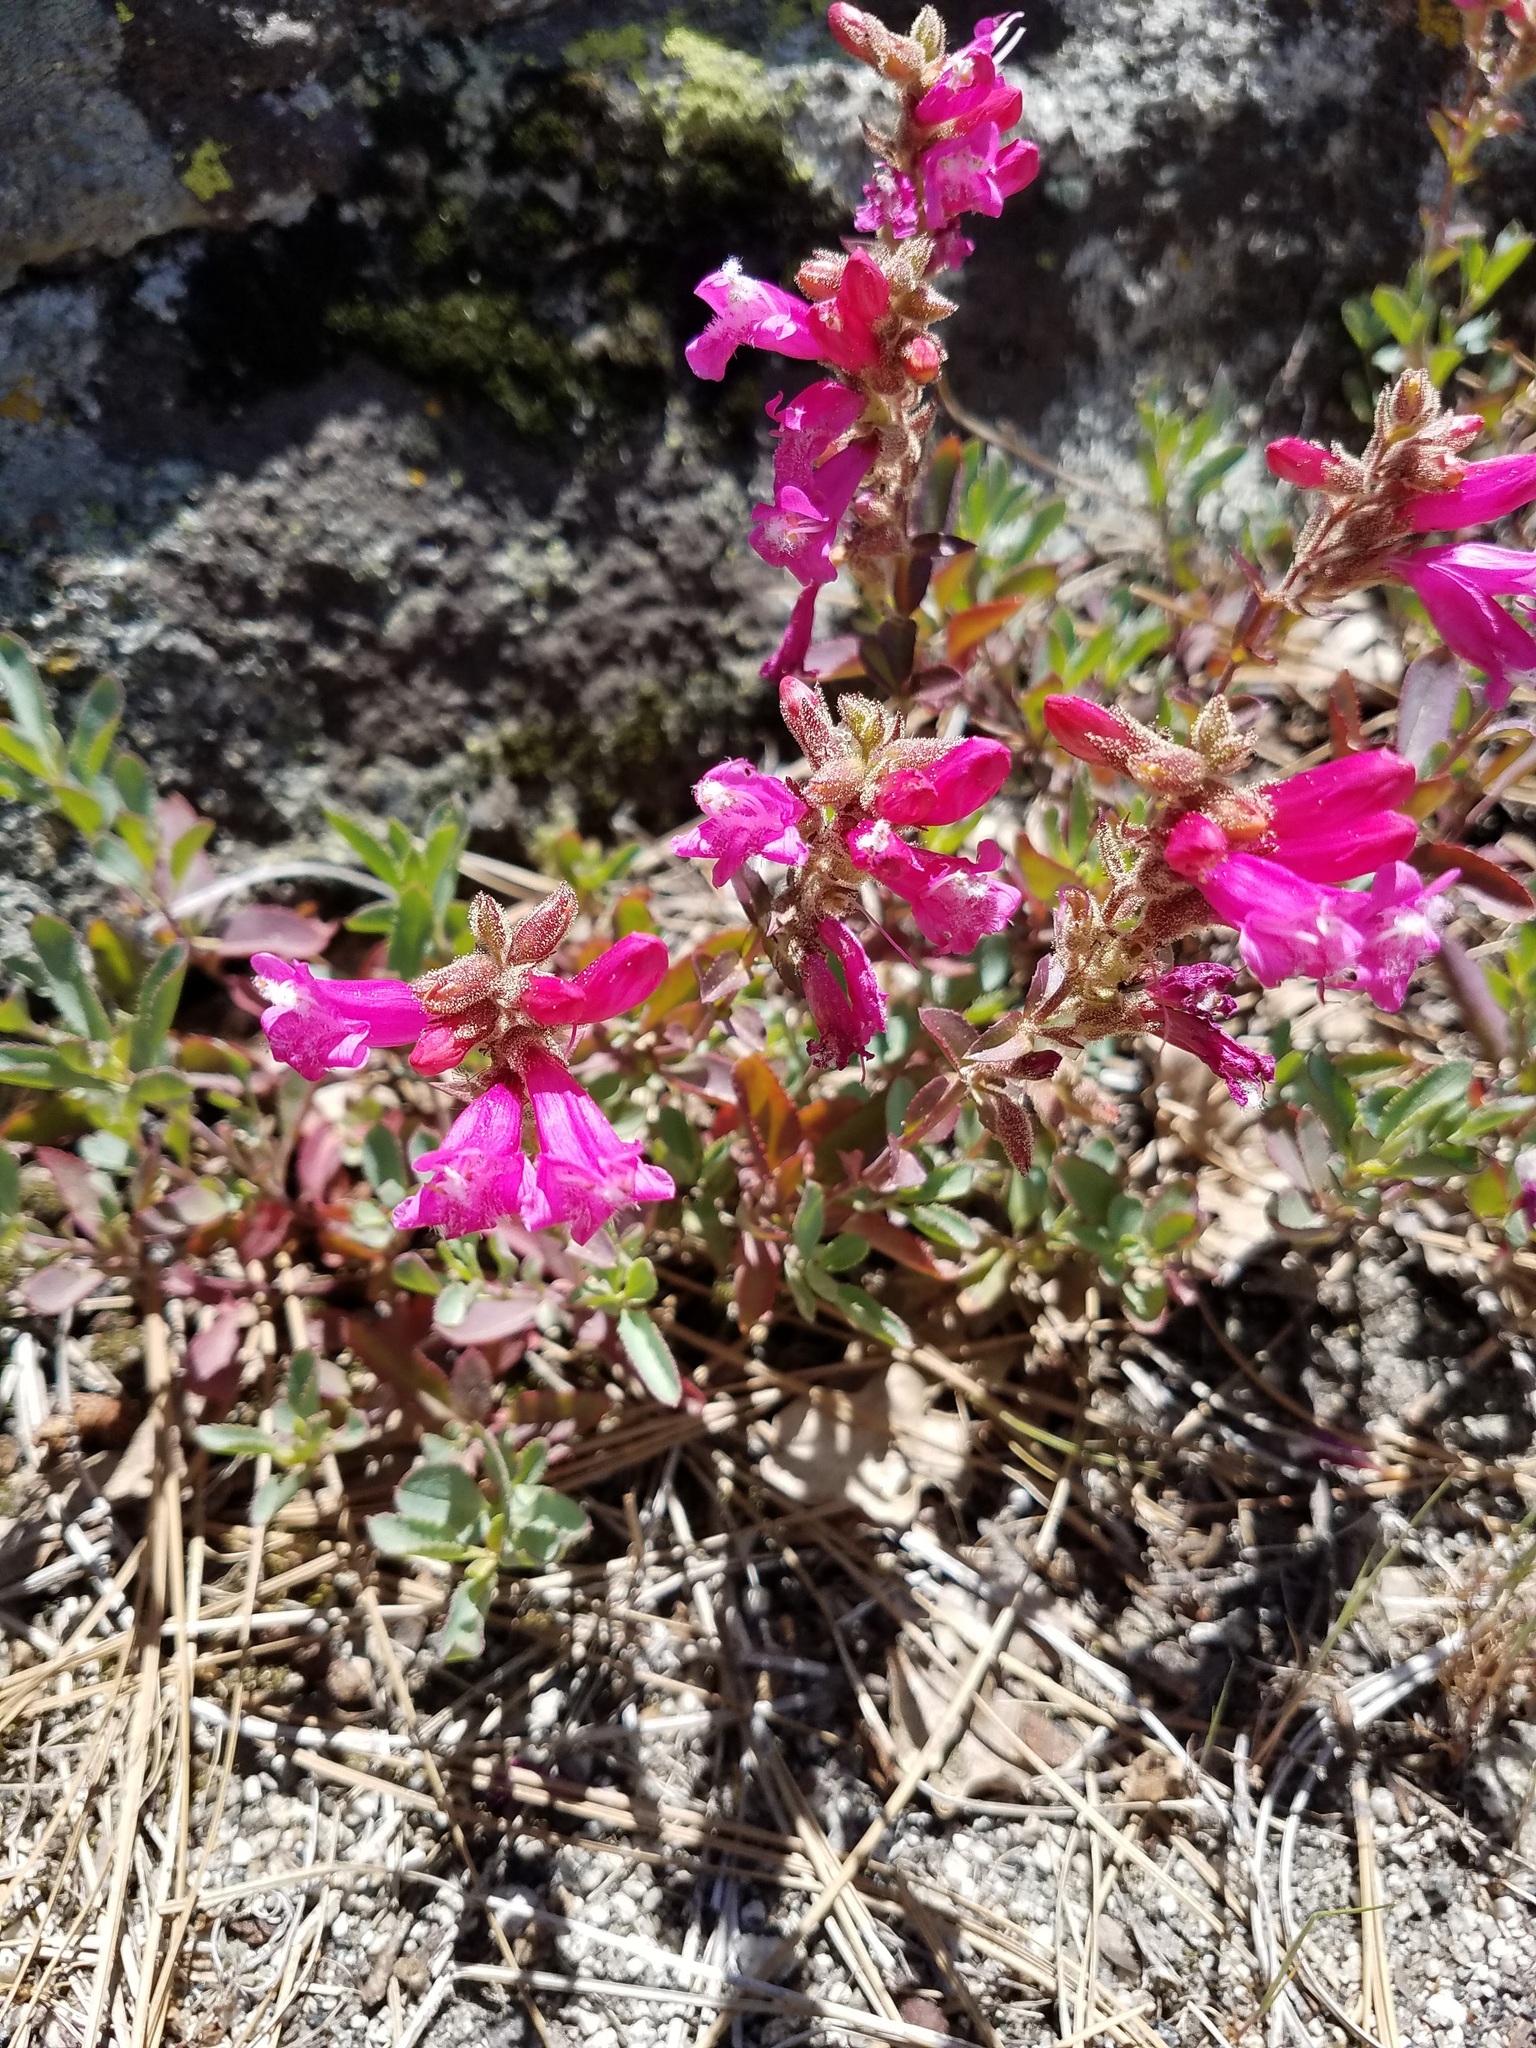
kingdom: Plantae
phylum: Tracheophyta
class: Magnoliopsida
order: Lamiales
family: Plantaginaceae
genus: Penstemon
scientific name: Penstemon newberryi
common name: Mountain-pride
